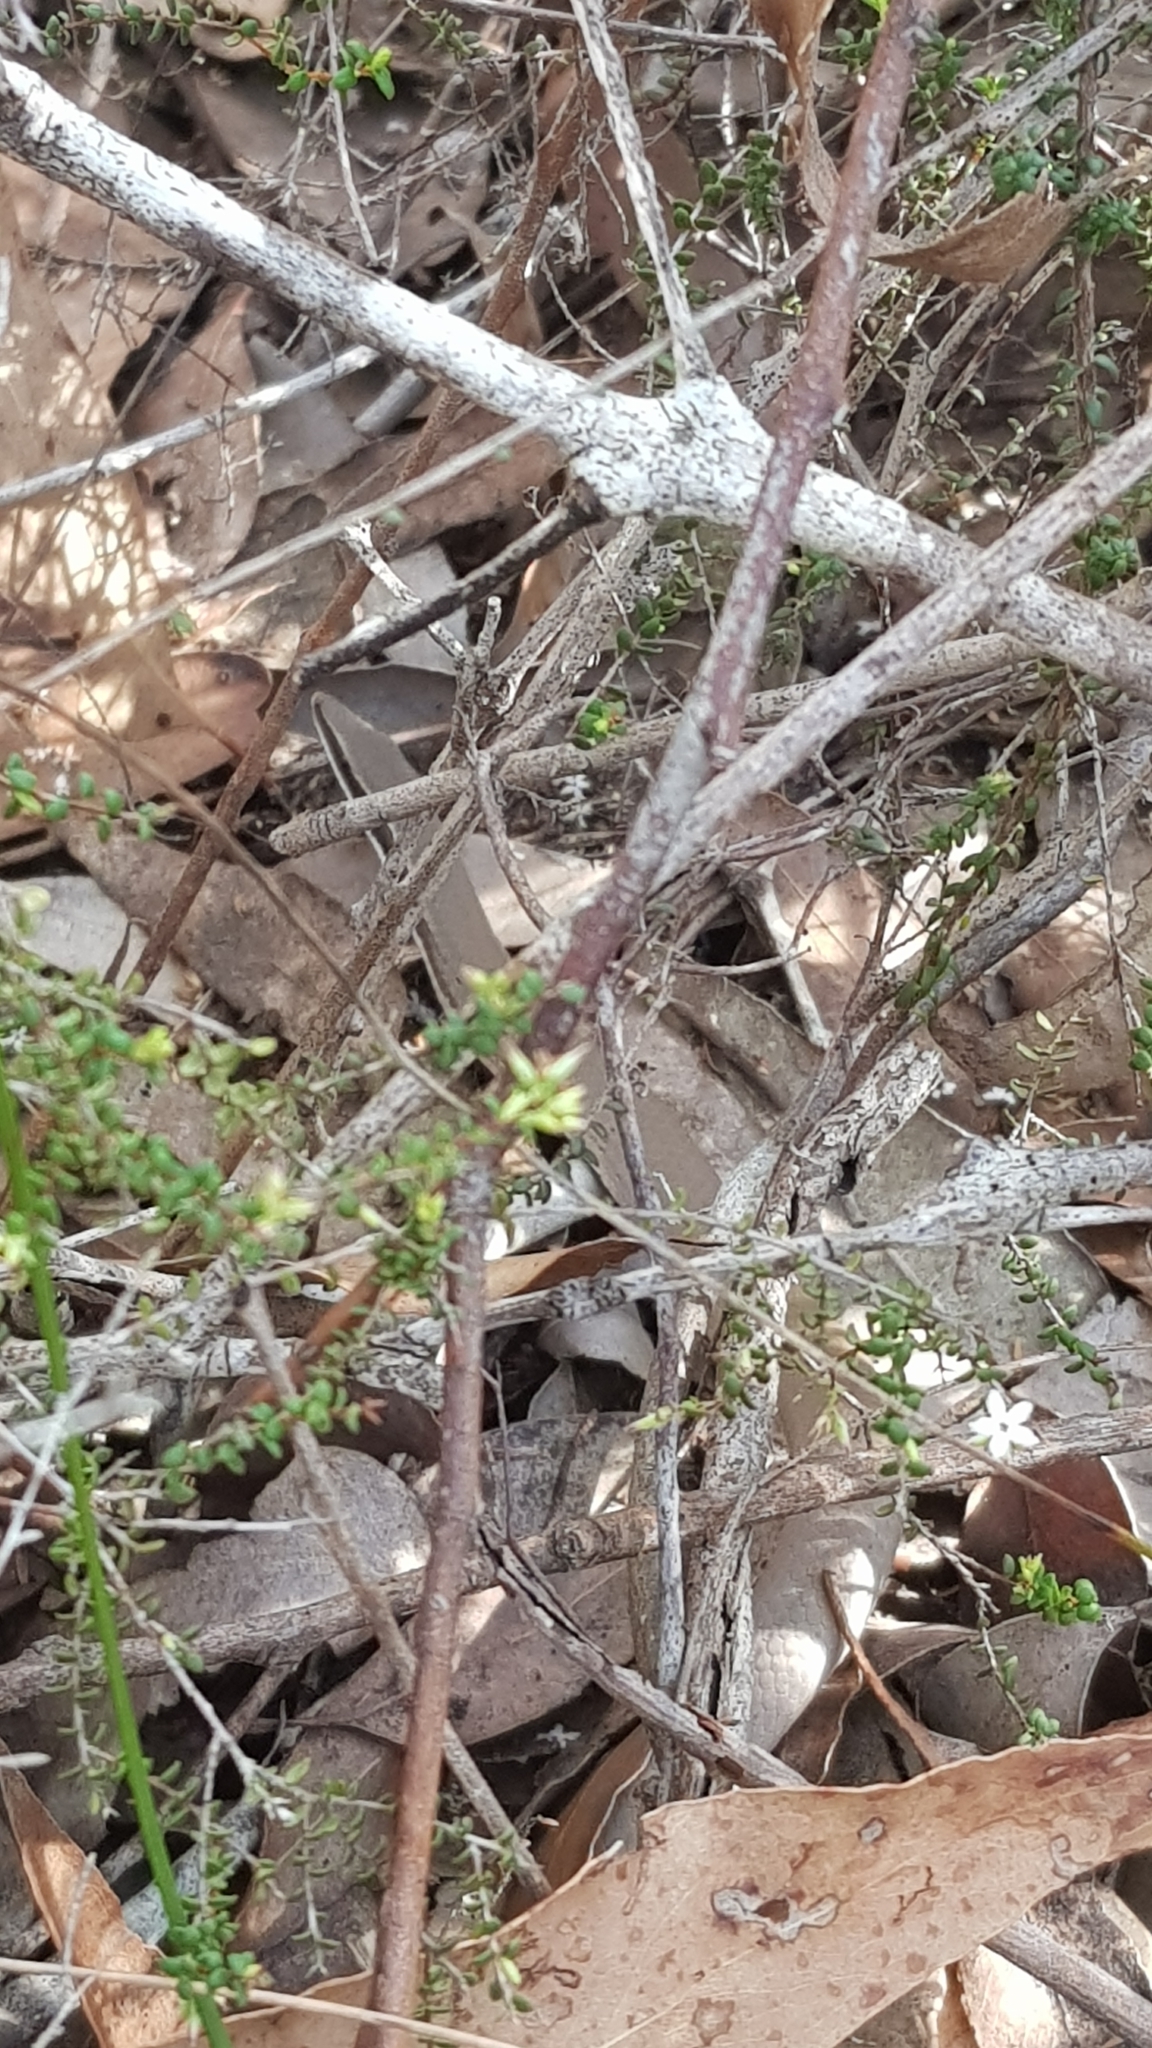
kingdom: Animalia
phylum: Chordata
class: Squamata
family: Pygopodidae
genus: Lialis
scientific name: Lialis burtonis
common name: Burton's legless lizard
